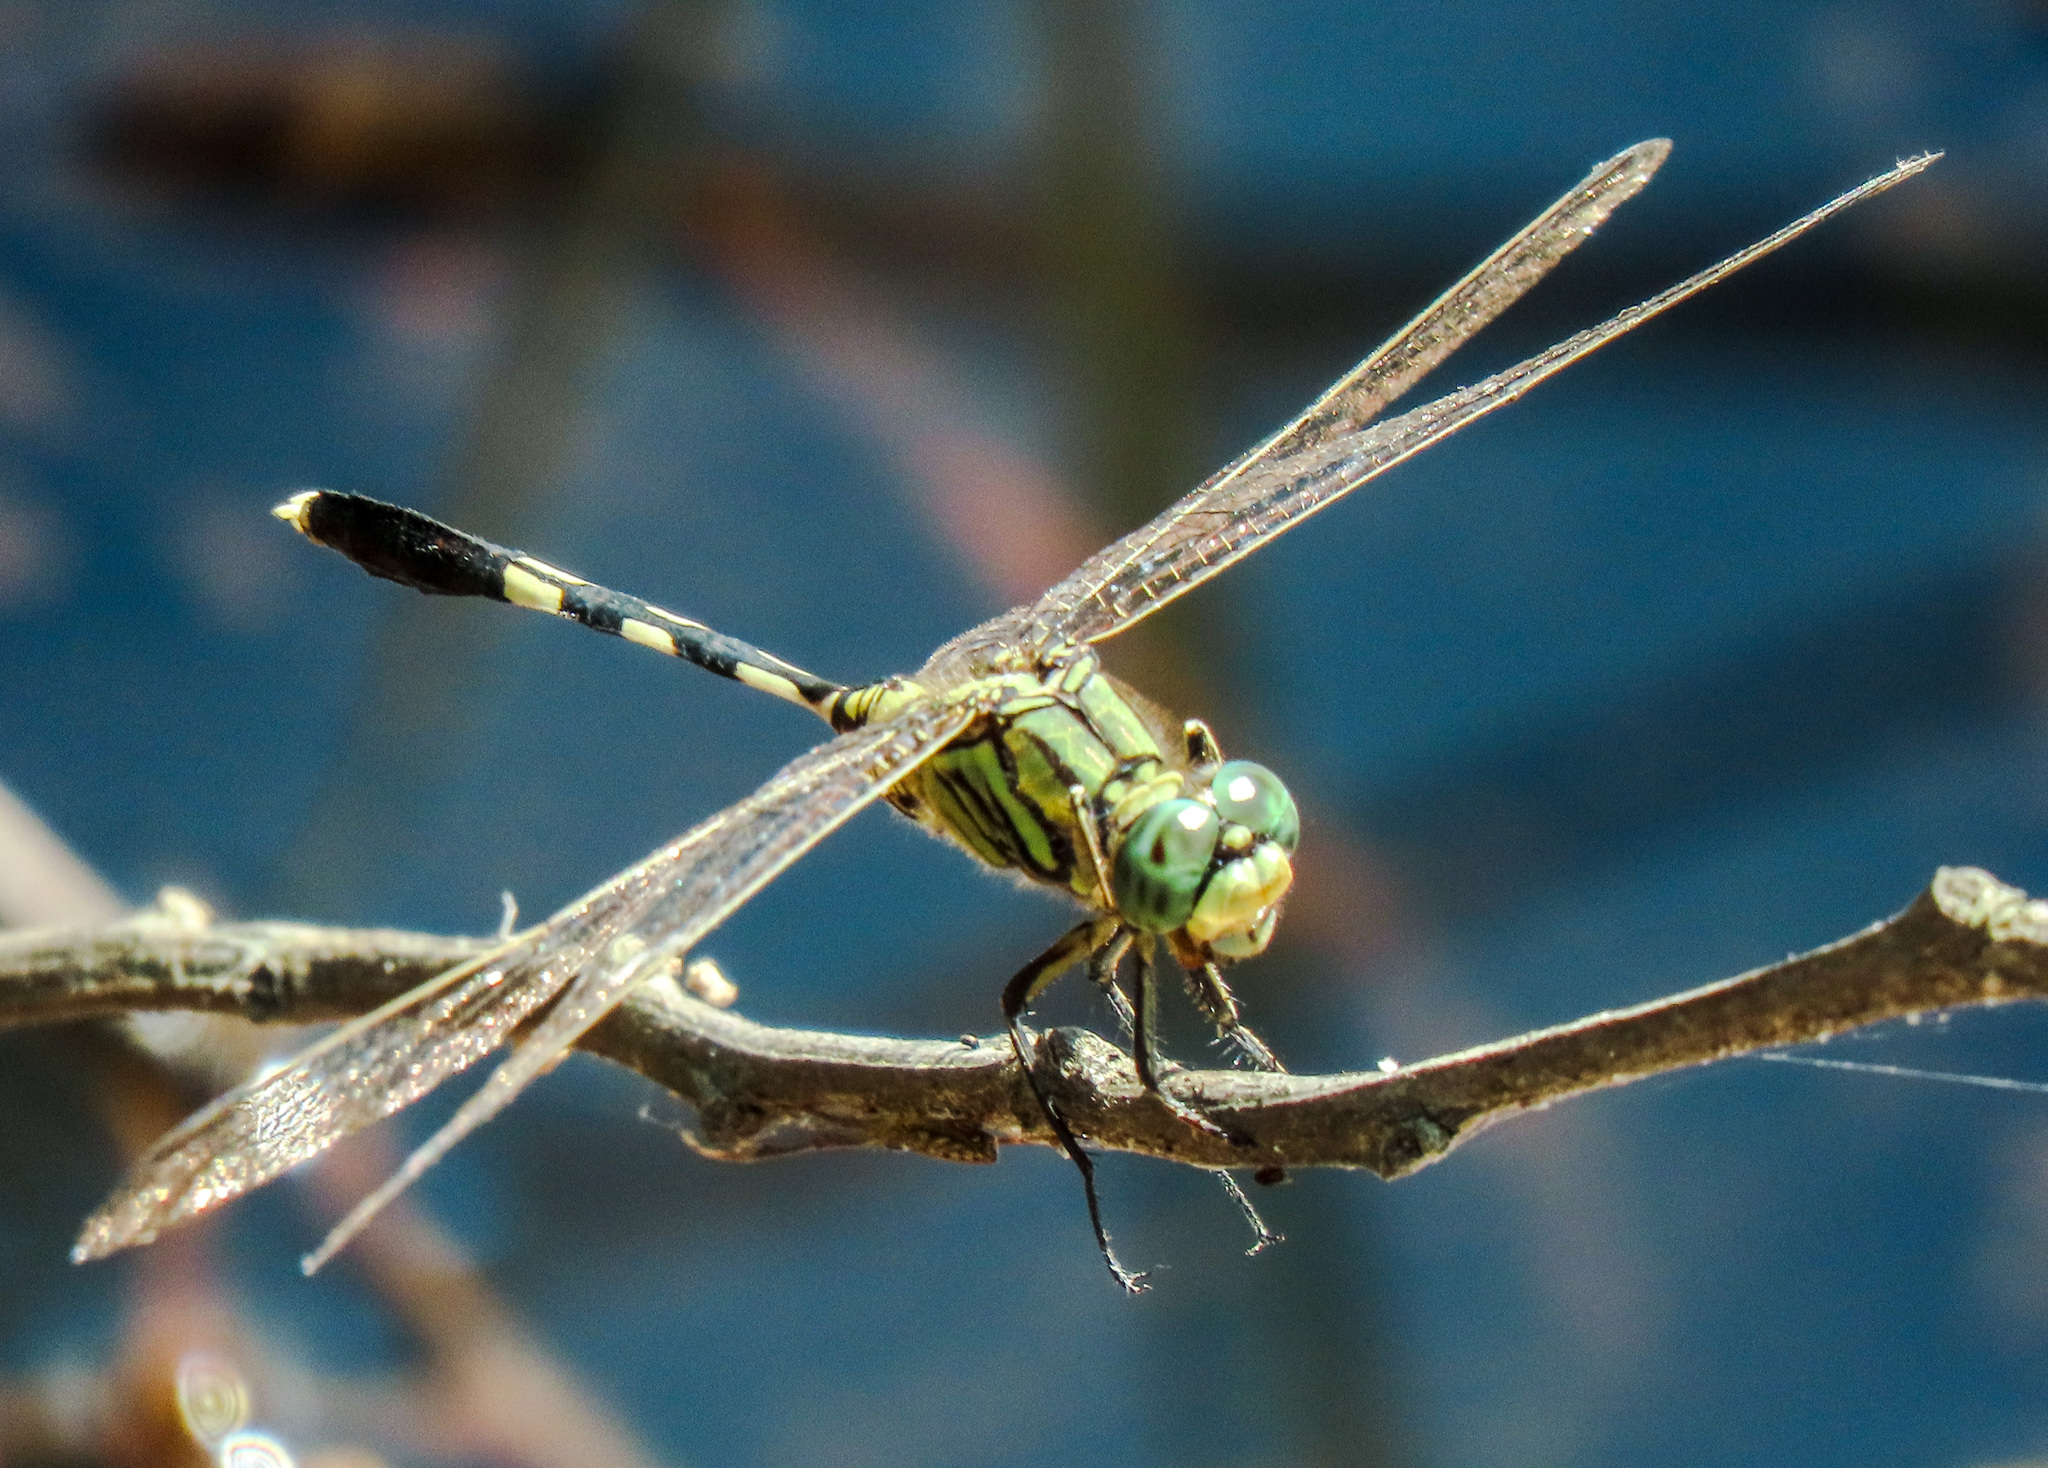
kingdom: Animalia
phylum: Arthropoda
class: Insecta
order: Odonata
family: Libellulidae
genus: Orthetrum
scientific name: Orthetrum sabina
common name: Slender skimmer
